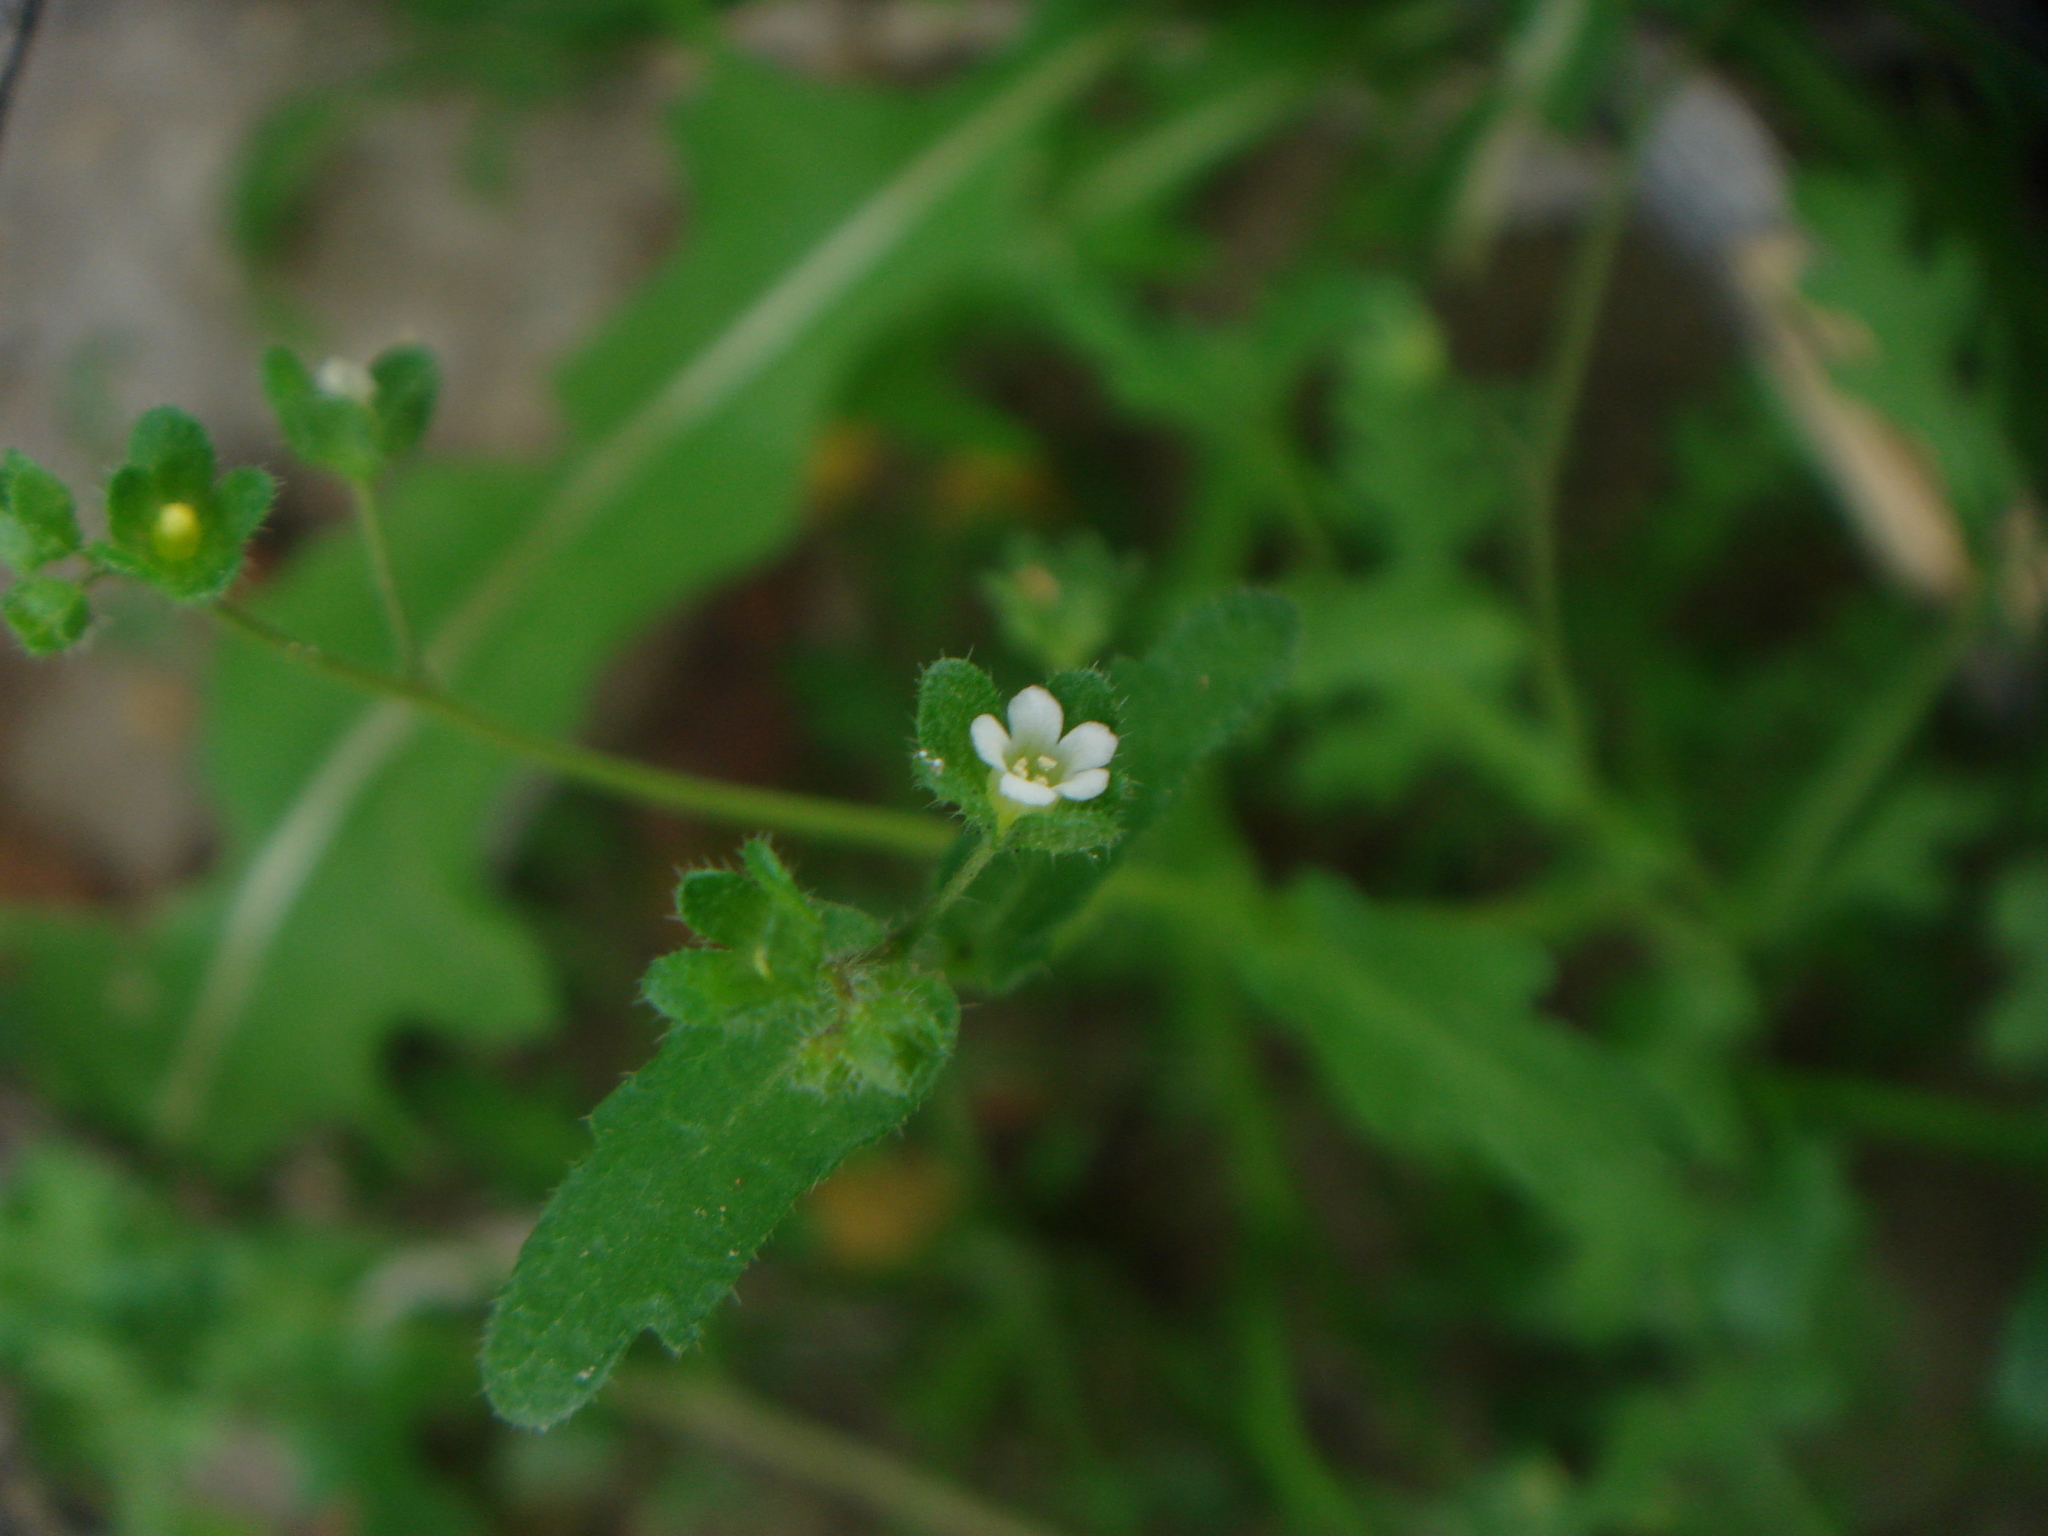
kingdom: Plantae
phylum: Tracheophyta
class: Magnoliopsida
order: Boraginales
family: Hydrophyllaceae
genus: Eucrypta
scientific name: Eucrypta micrantha
